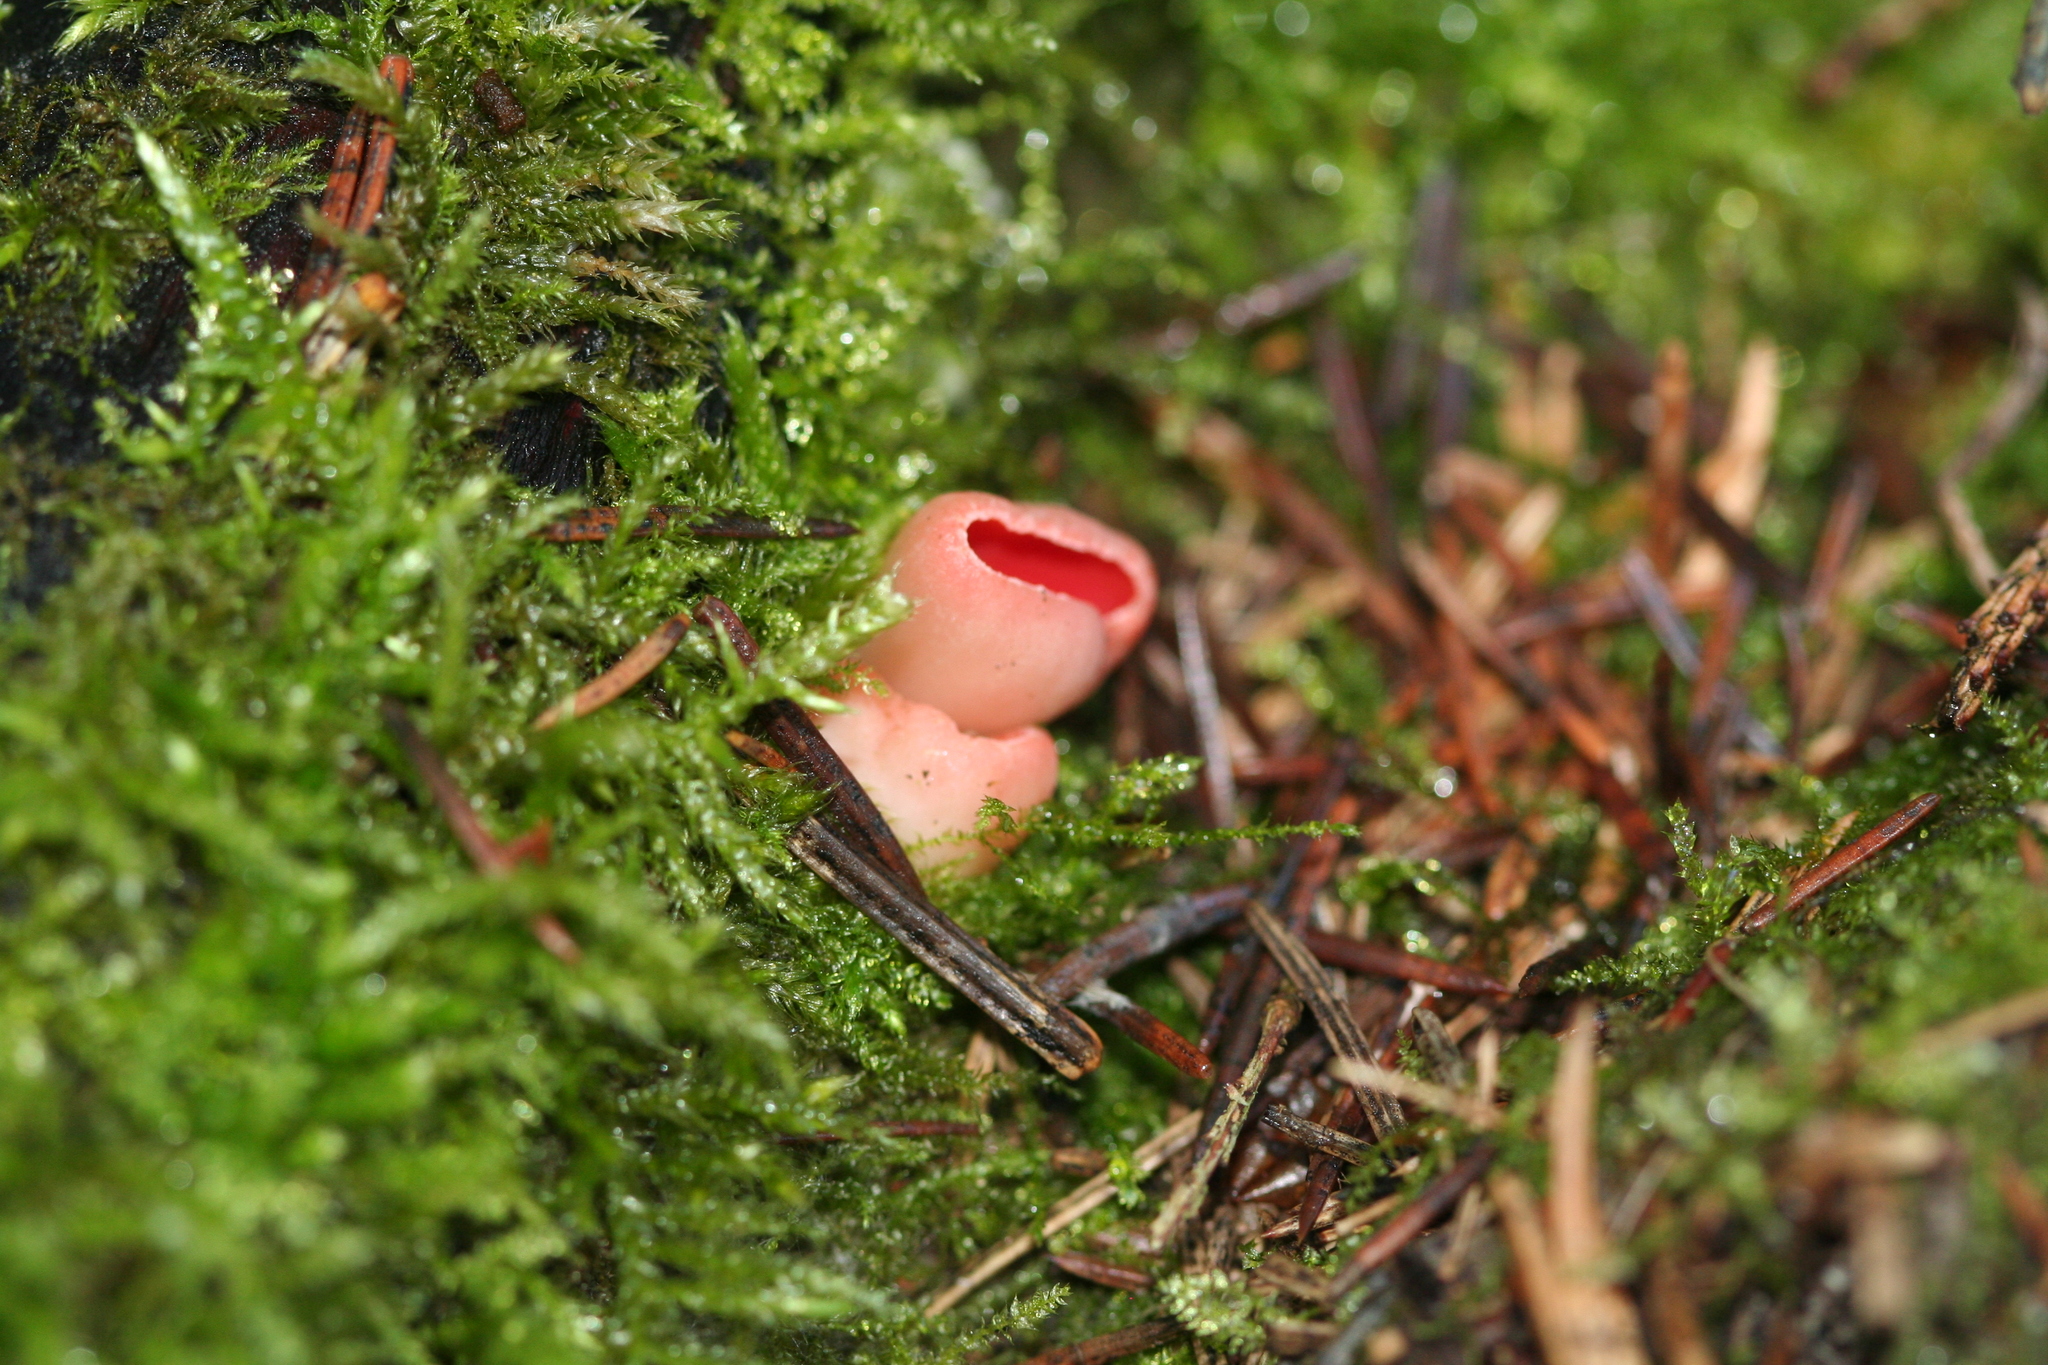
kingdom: Fungi
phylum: Ascomycota
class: Pezizomycetes
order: Pezizales
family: Sarcoscyphaceae
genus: Sarcoscypha
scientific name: Sarcoscypha
